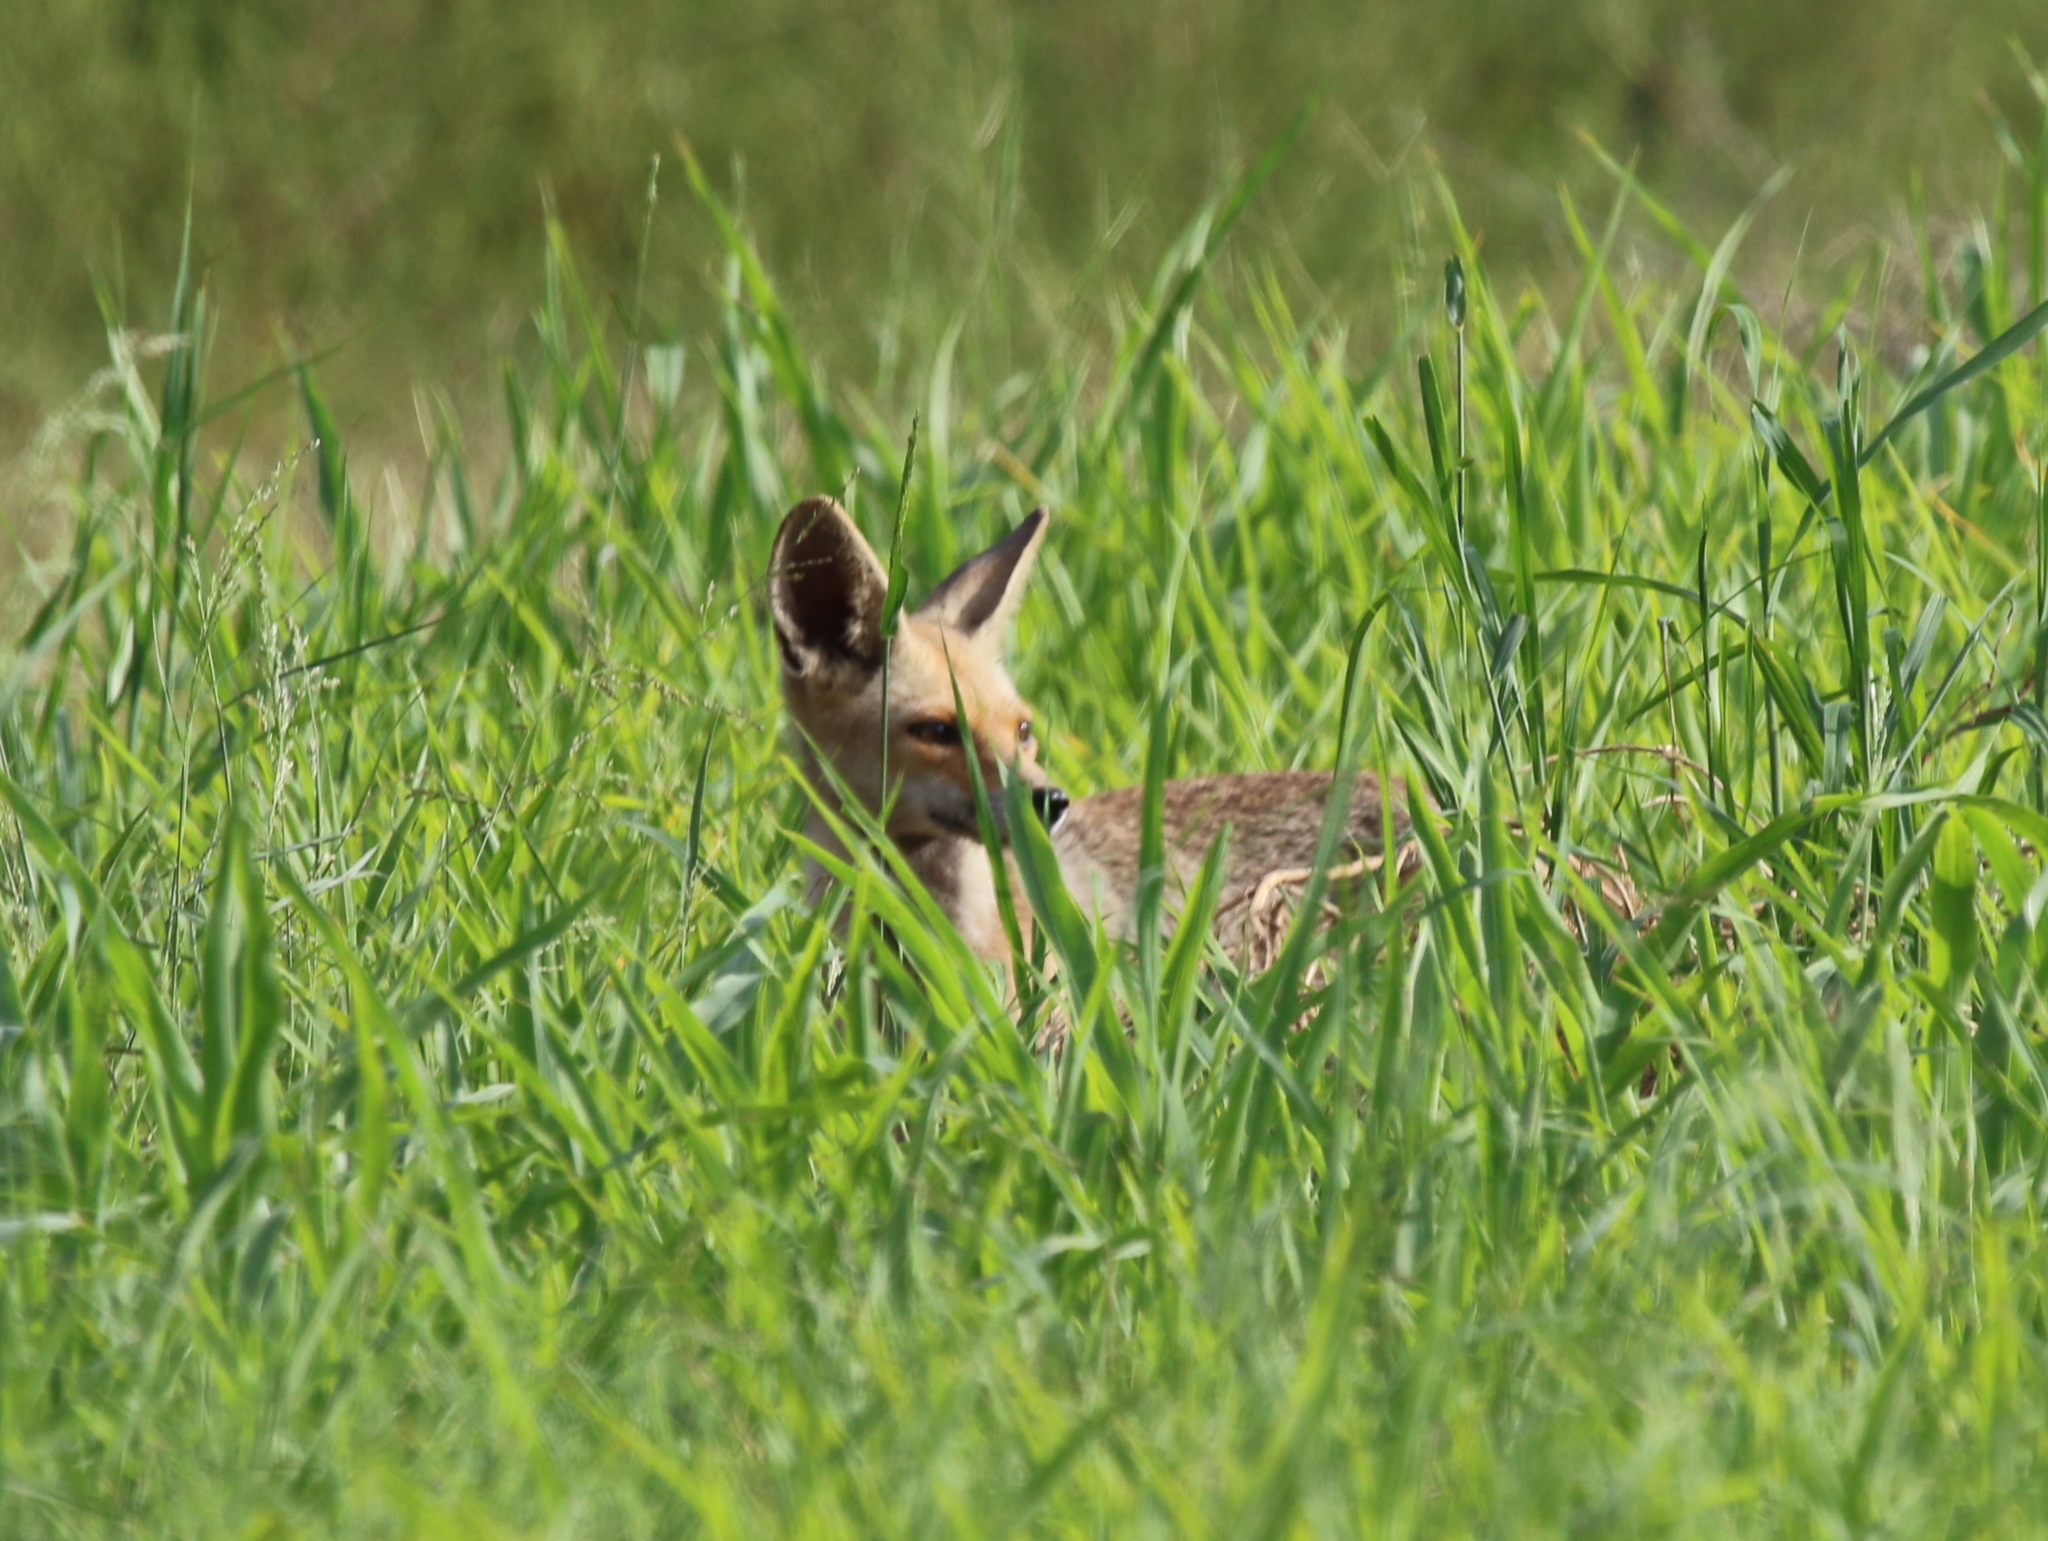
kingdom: Animalia
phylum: Chordata
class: Mammalia
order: Carnivora
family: Canidae
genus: Vulpes
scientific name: Vulpes vulpes
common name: Red fox
